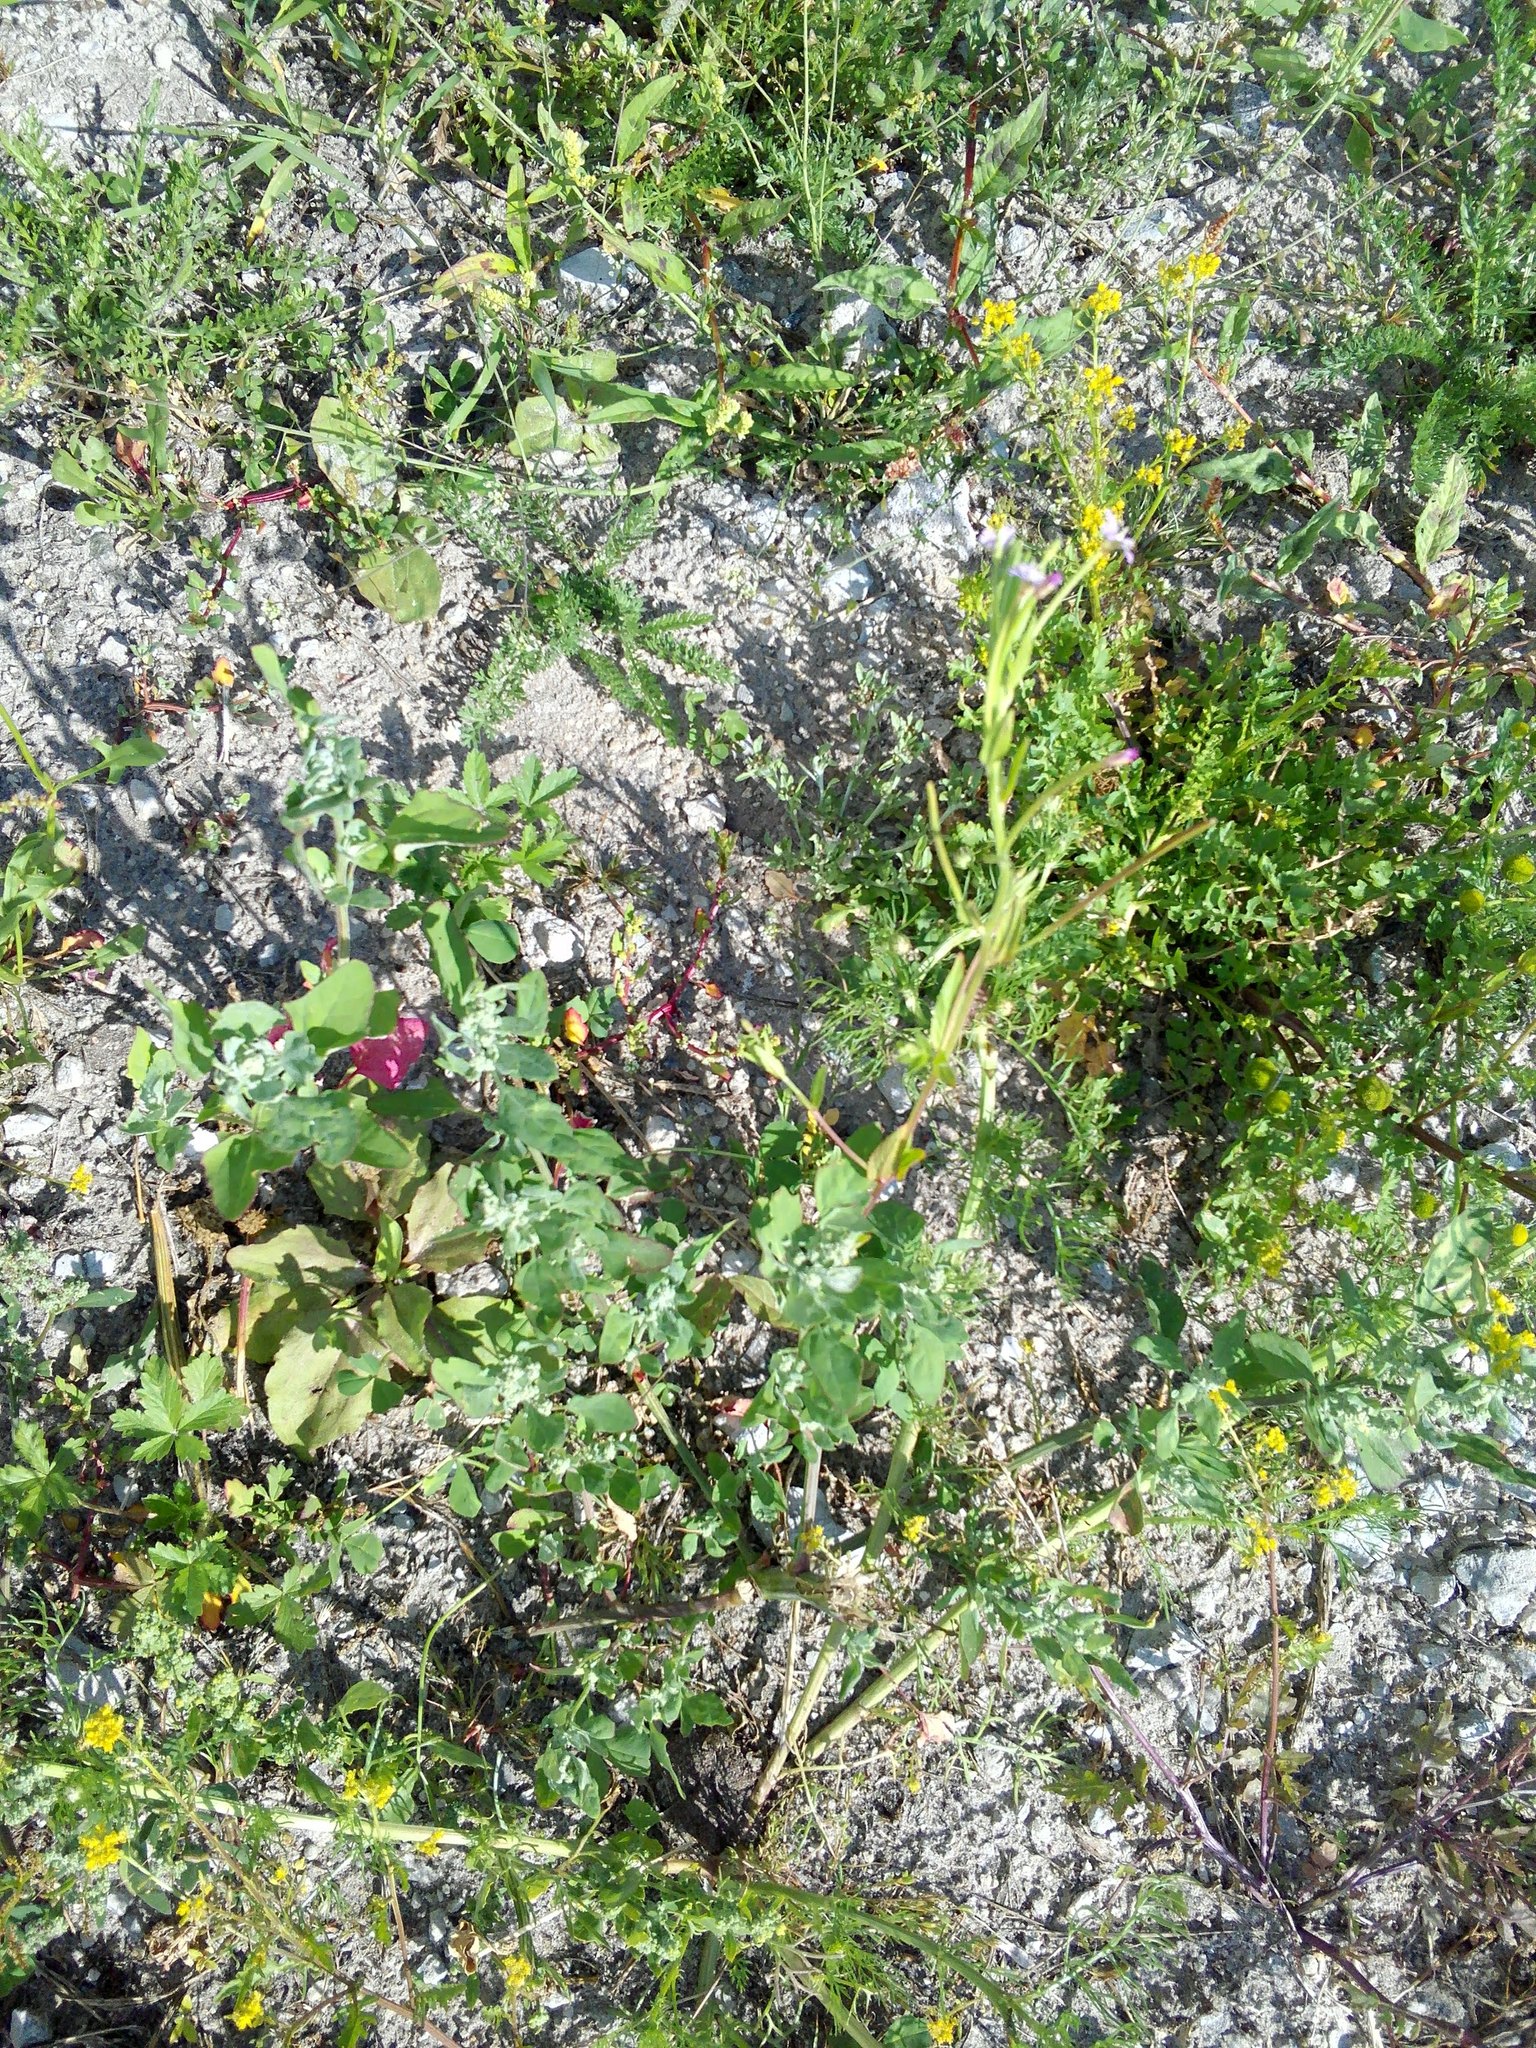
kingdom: Plantae
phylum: Tracheophyta
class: Magnoliopsida
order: Brassicales
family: Brassicaceae
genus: Rorippa
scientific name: Rorippa palustris
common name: Marsh yellow-cress
